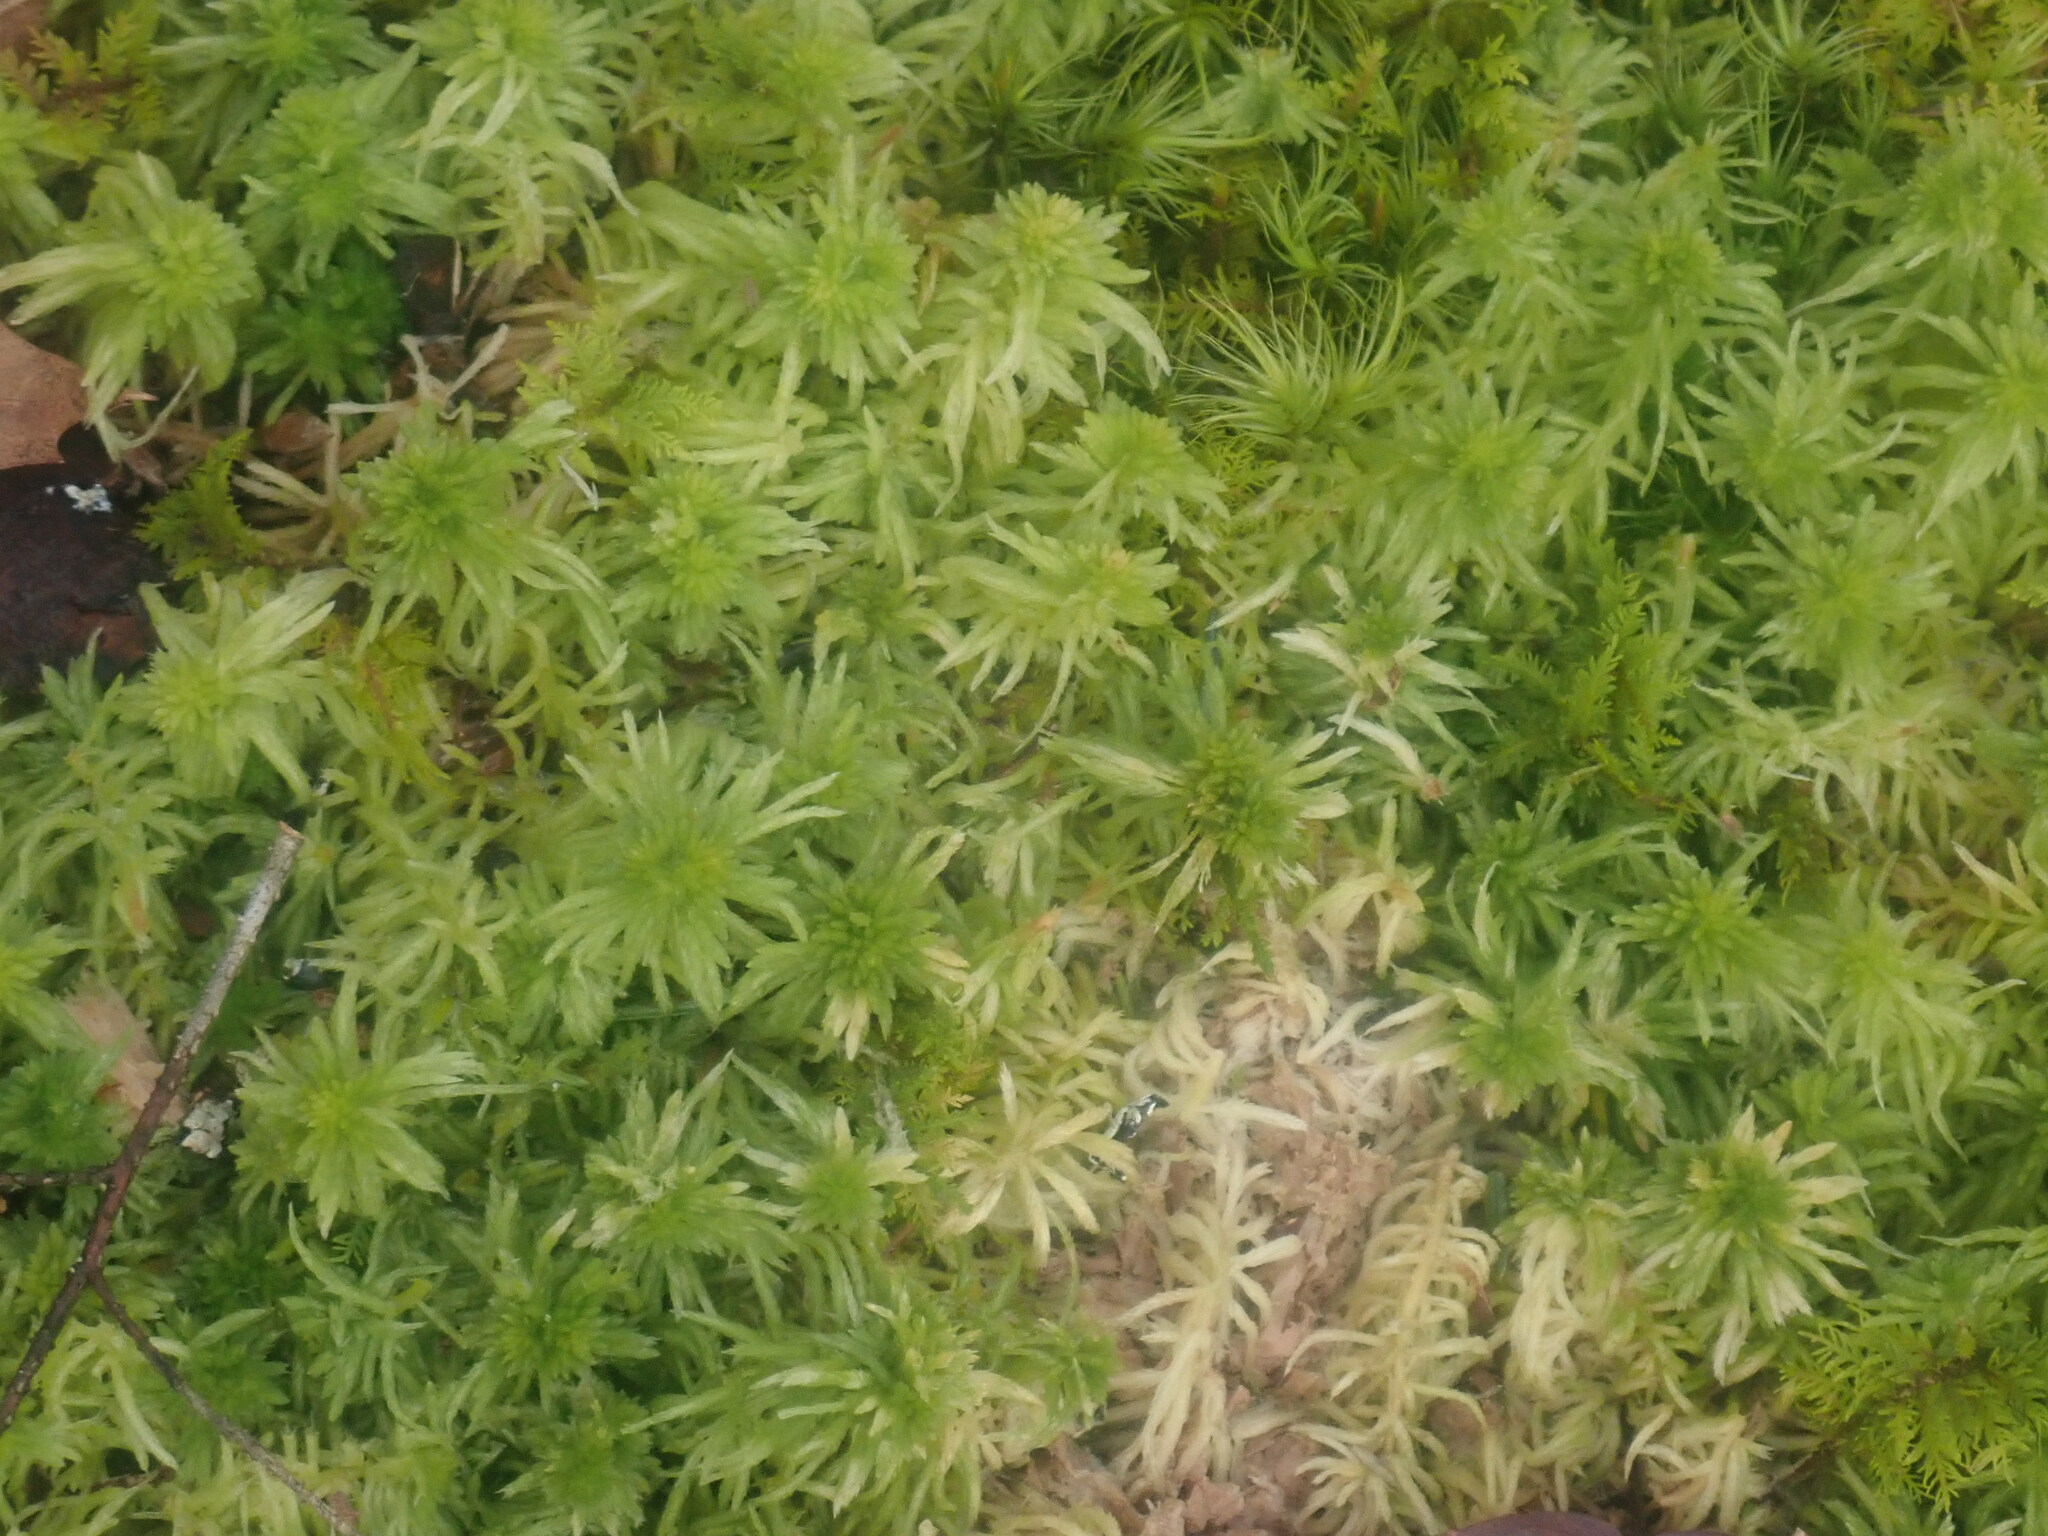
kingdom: Plantae
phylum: Bryophyta
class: Sphagnopsida
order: Sphagnales
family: Sphagnaceae
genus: Sphagnum
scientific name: Sphagnum
